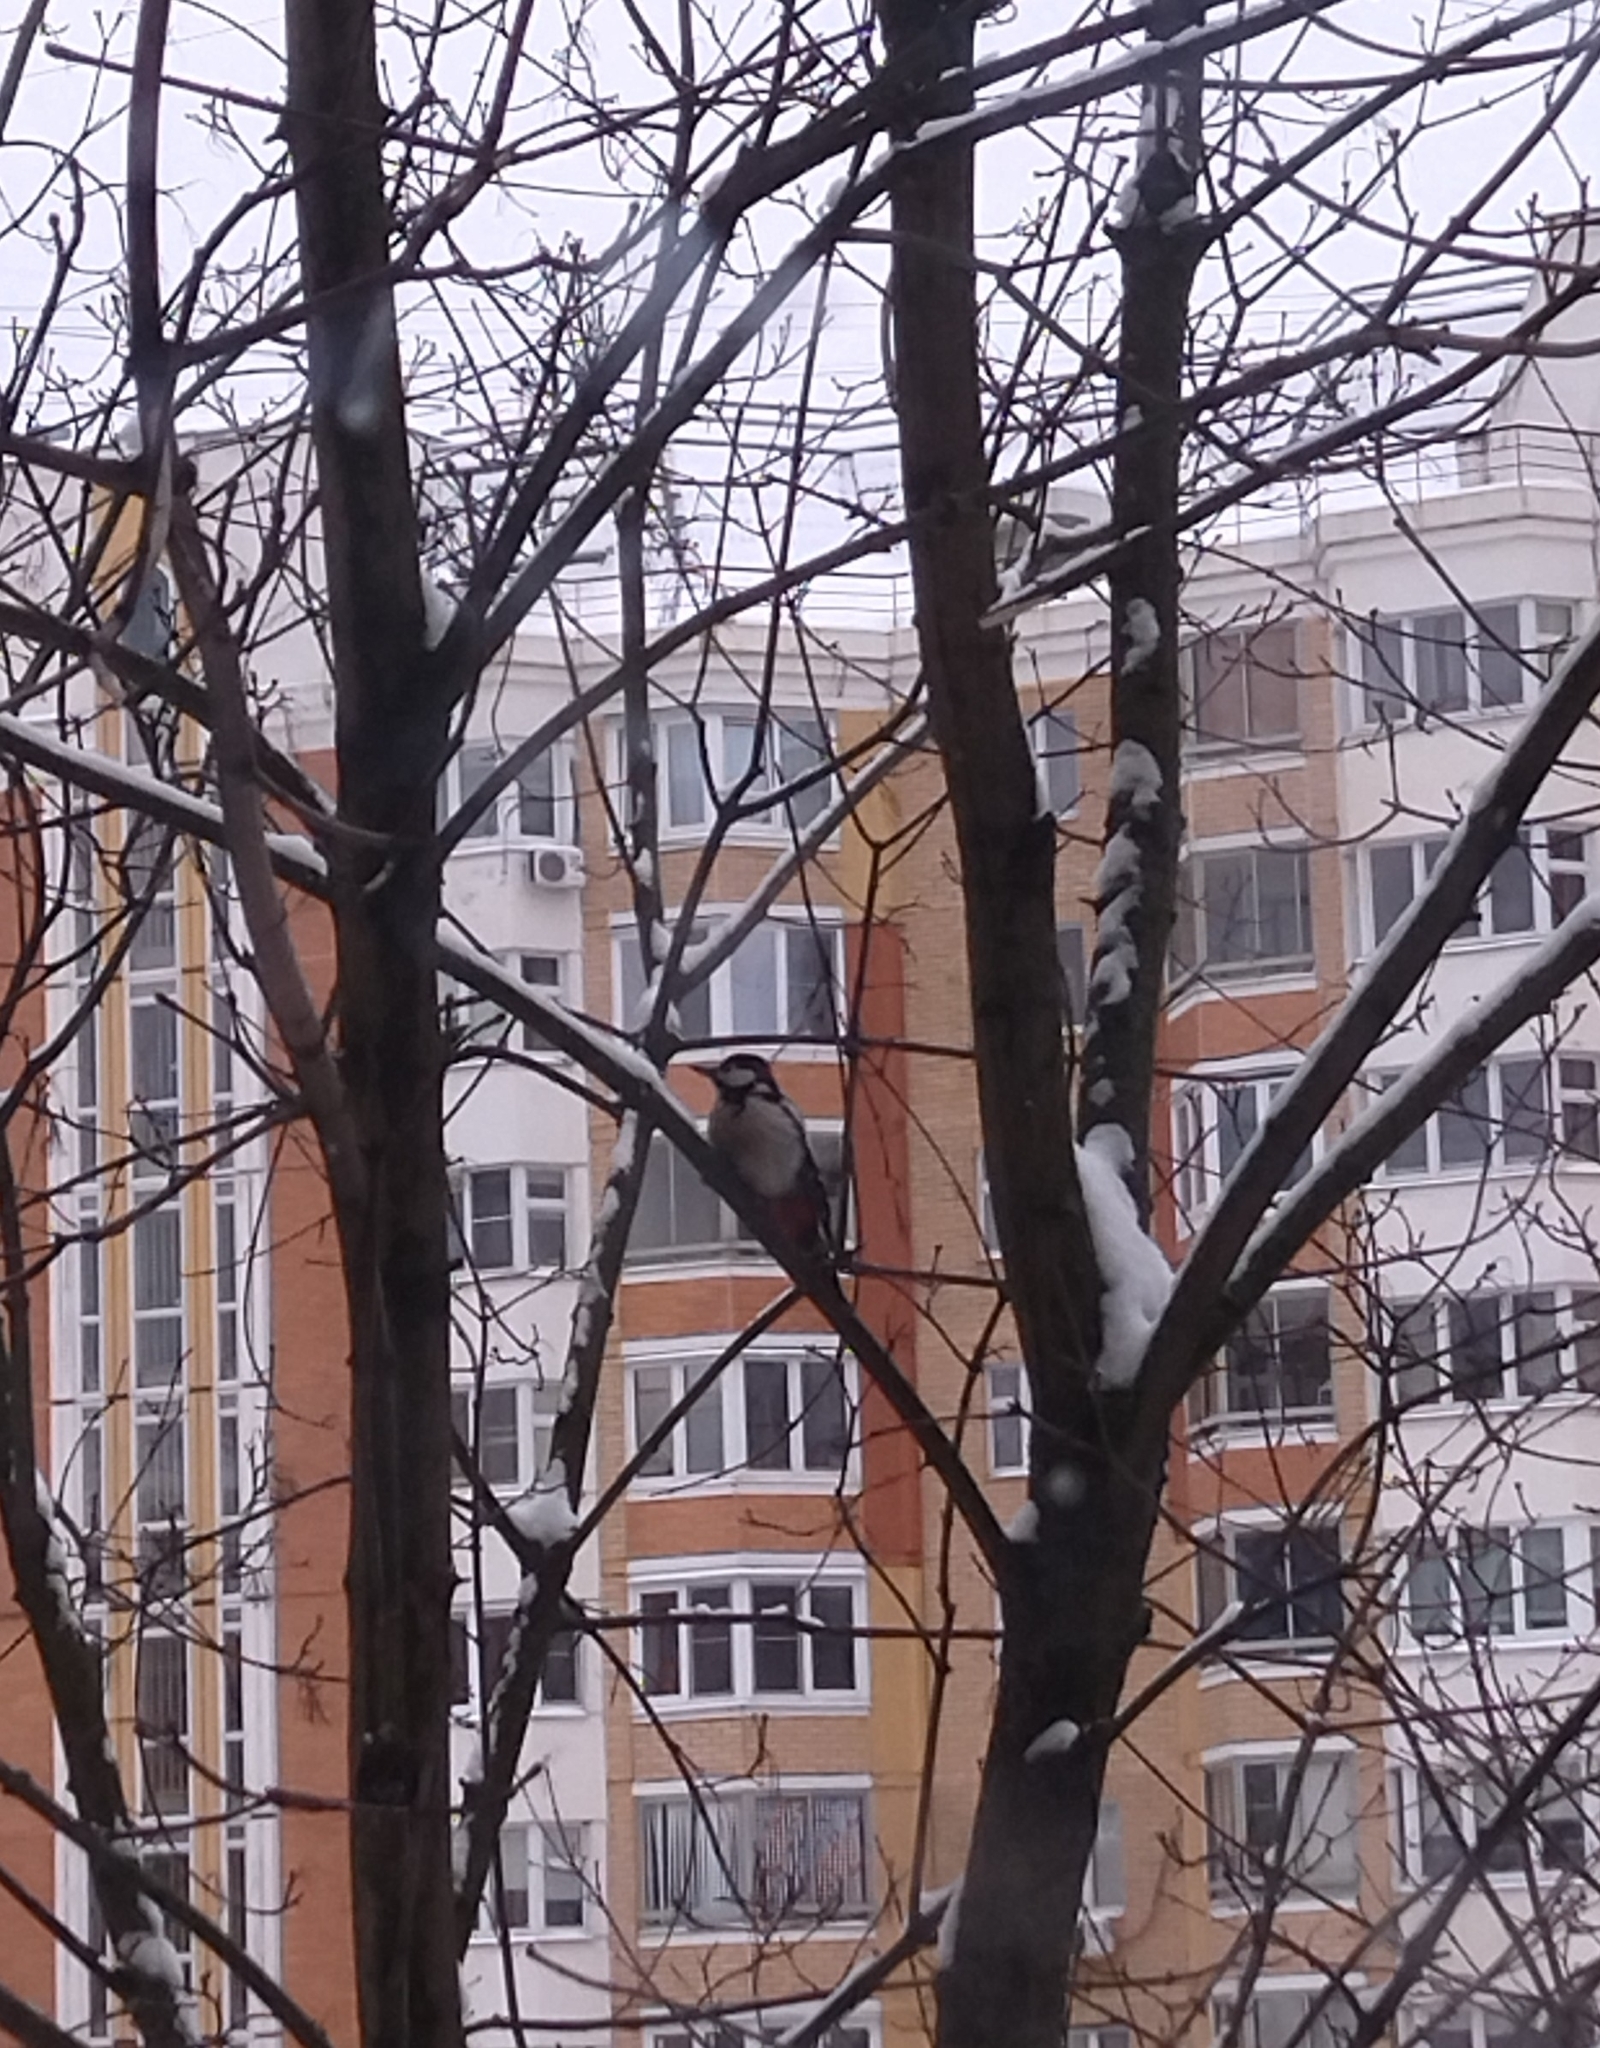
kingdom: Animalia
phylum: Chordata
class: Aves
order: Piciformes
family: Picidae
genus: Dendrocopos
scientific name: Dendrocopos major
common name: Great spotted woodpecker
